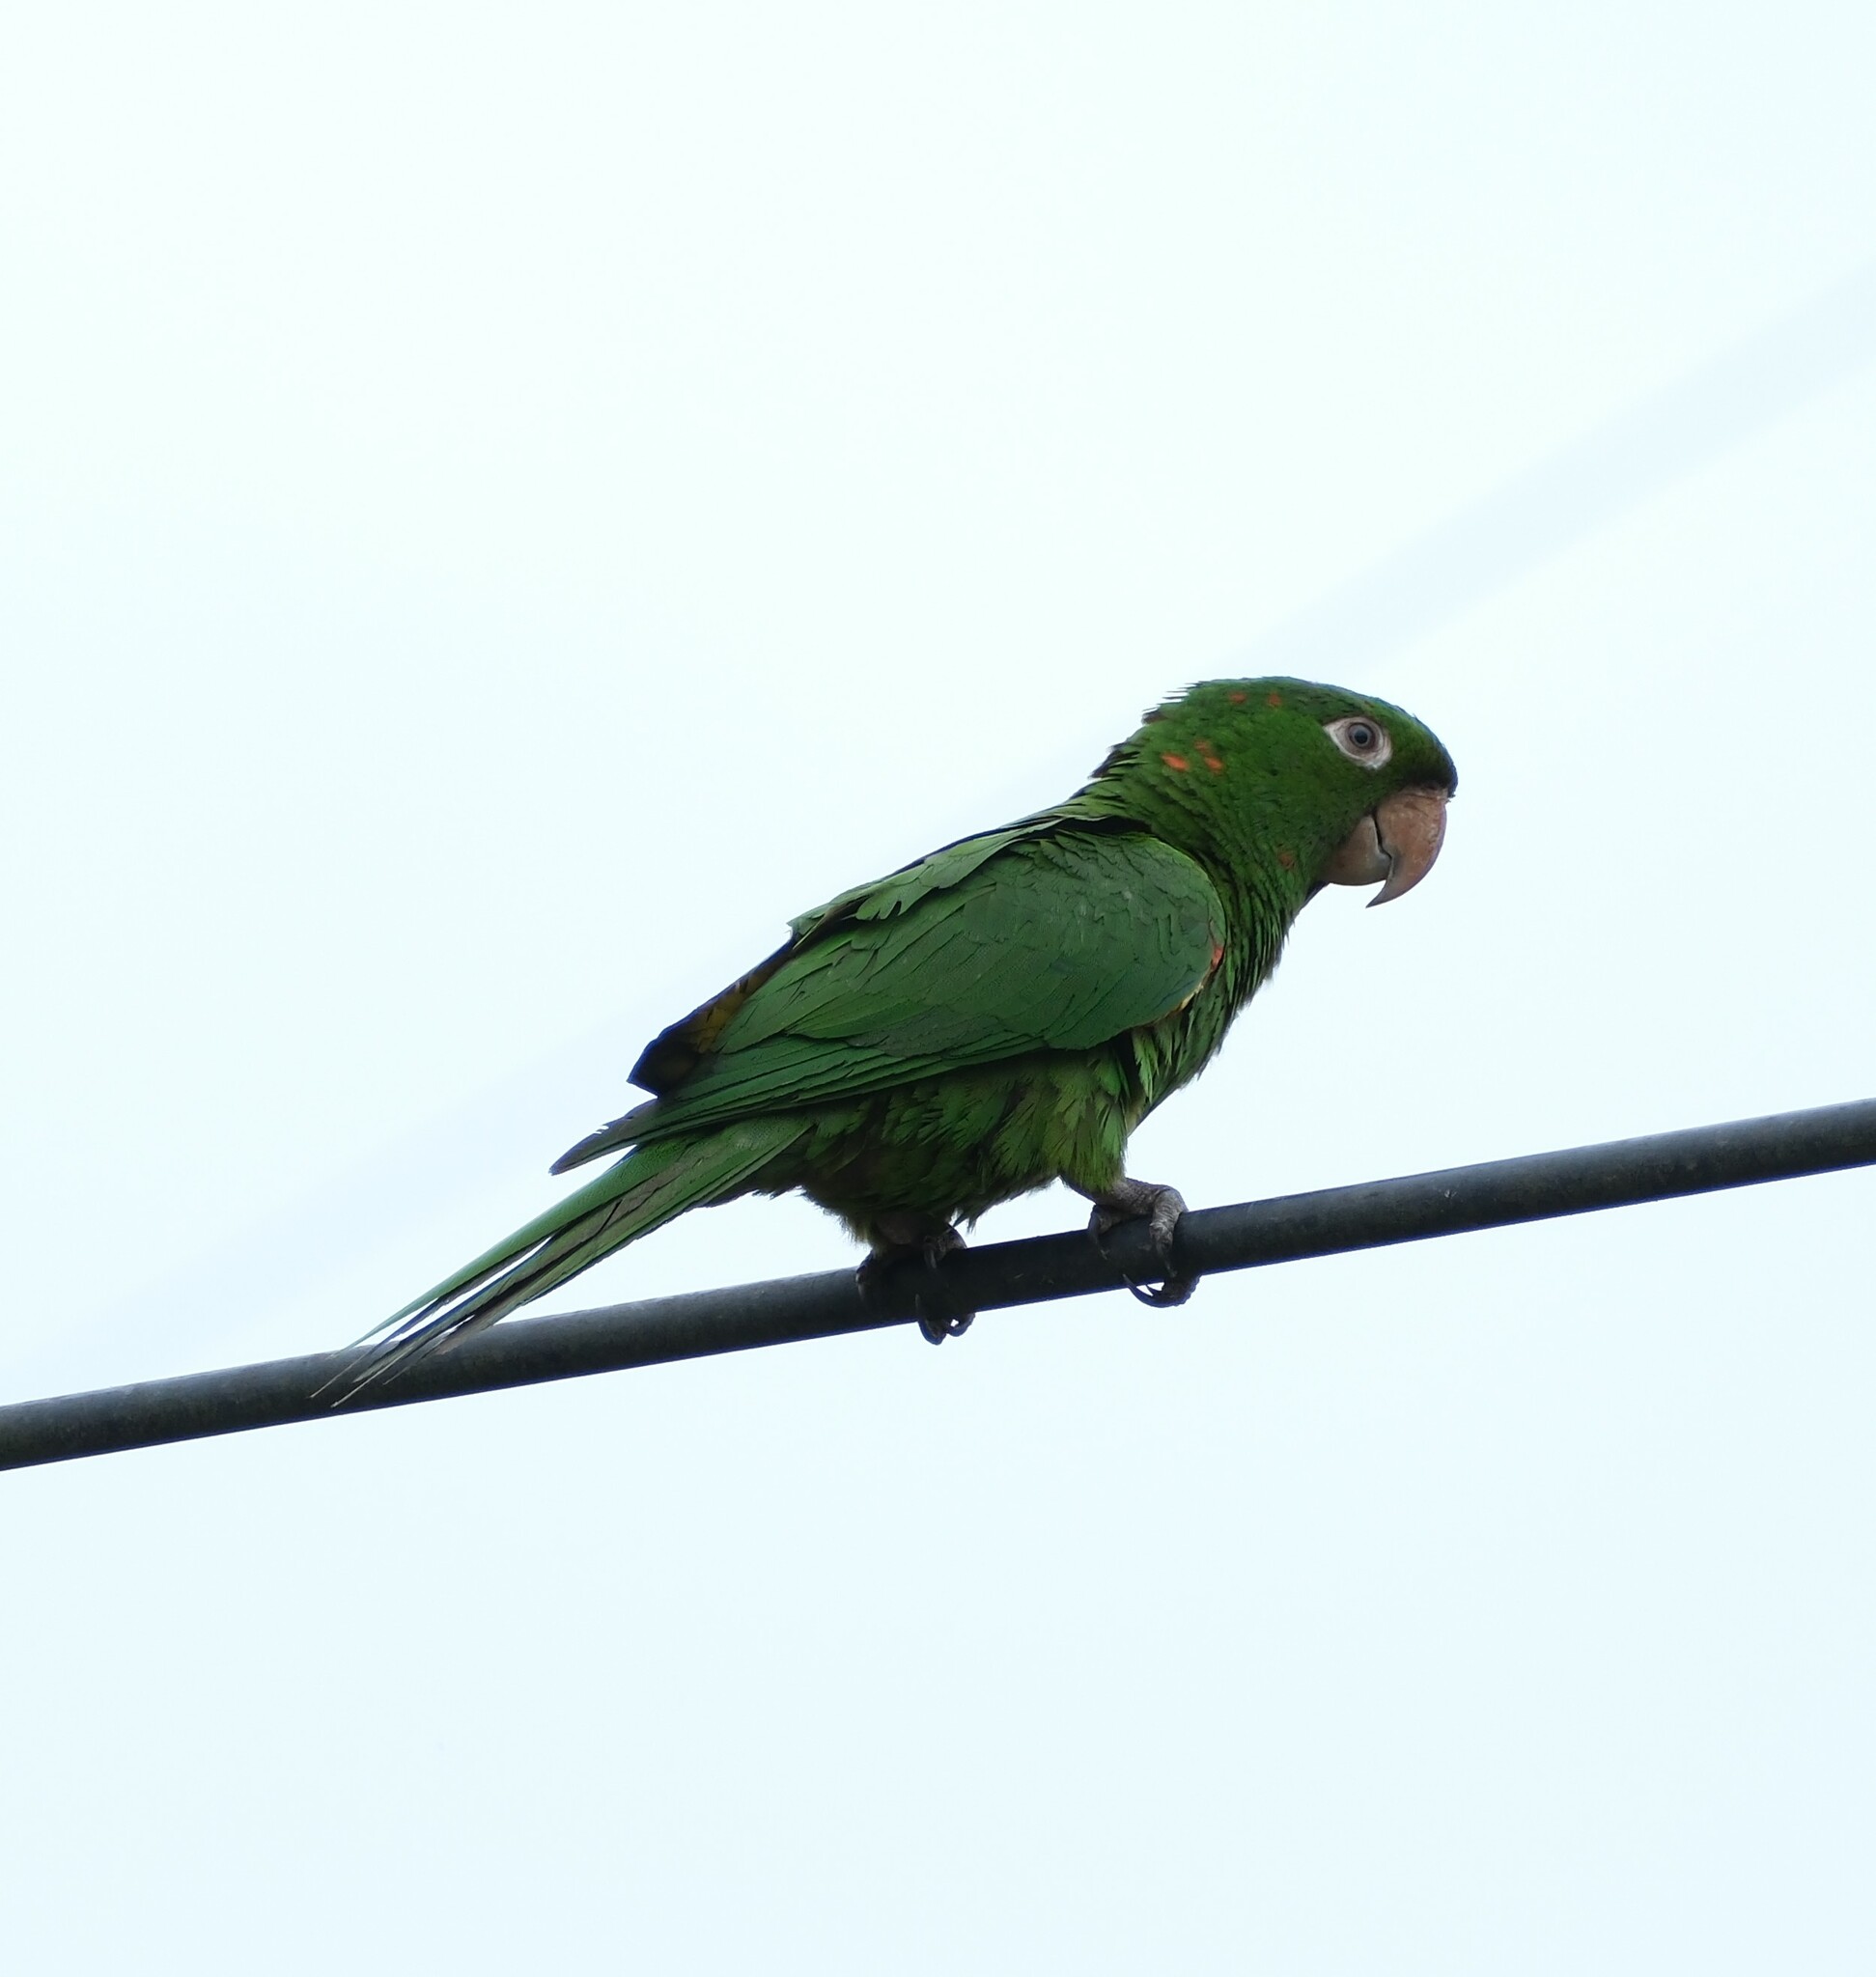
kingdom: Animalia
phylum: Chordata
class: Aves
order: Psittaciformes
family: Psittacidae
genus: Aratinga
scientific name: Aratinga leucophthalma
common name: White-eyed parakeet
